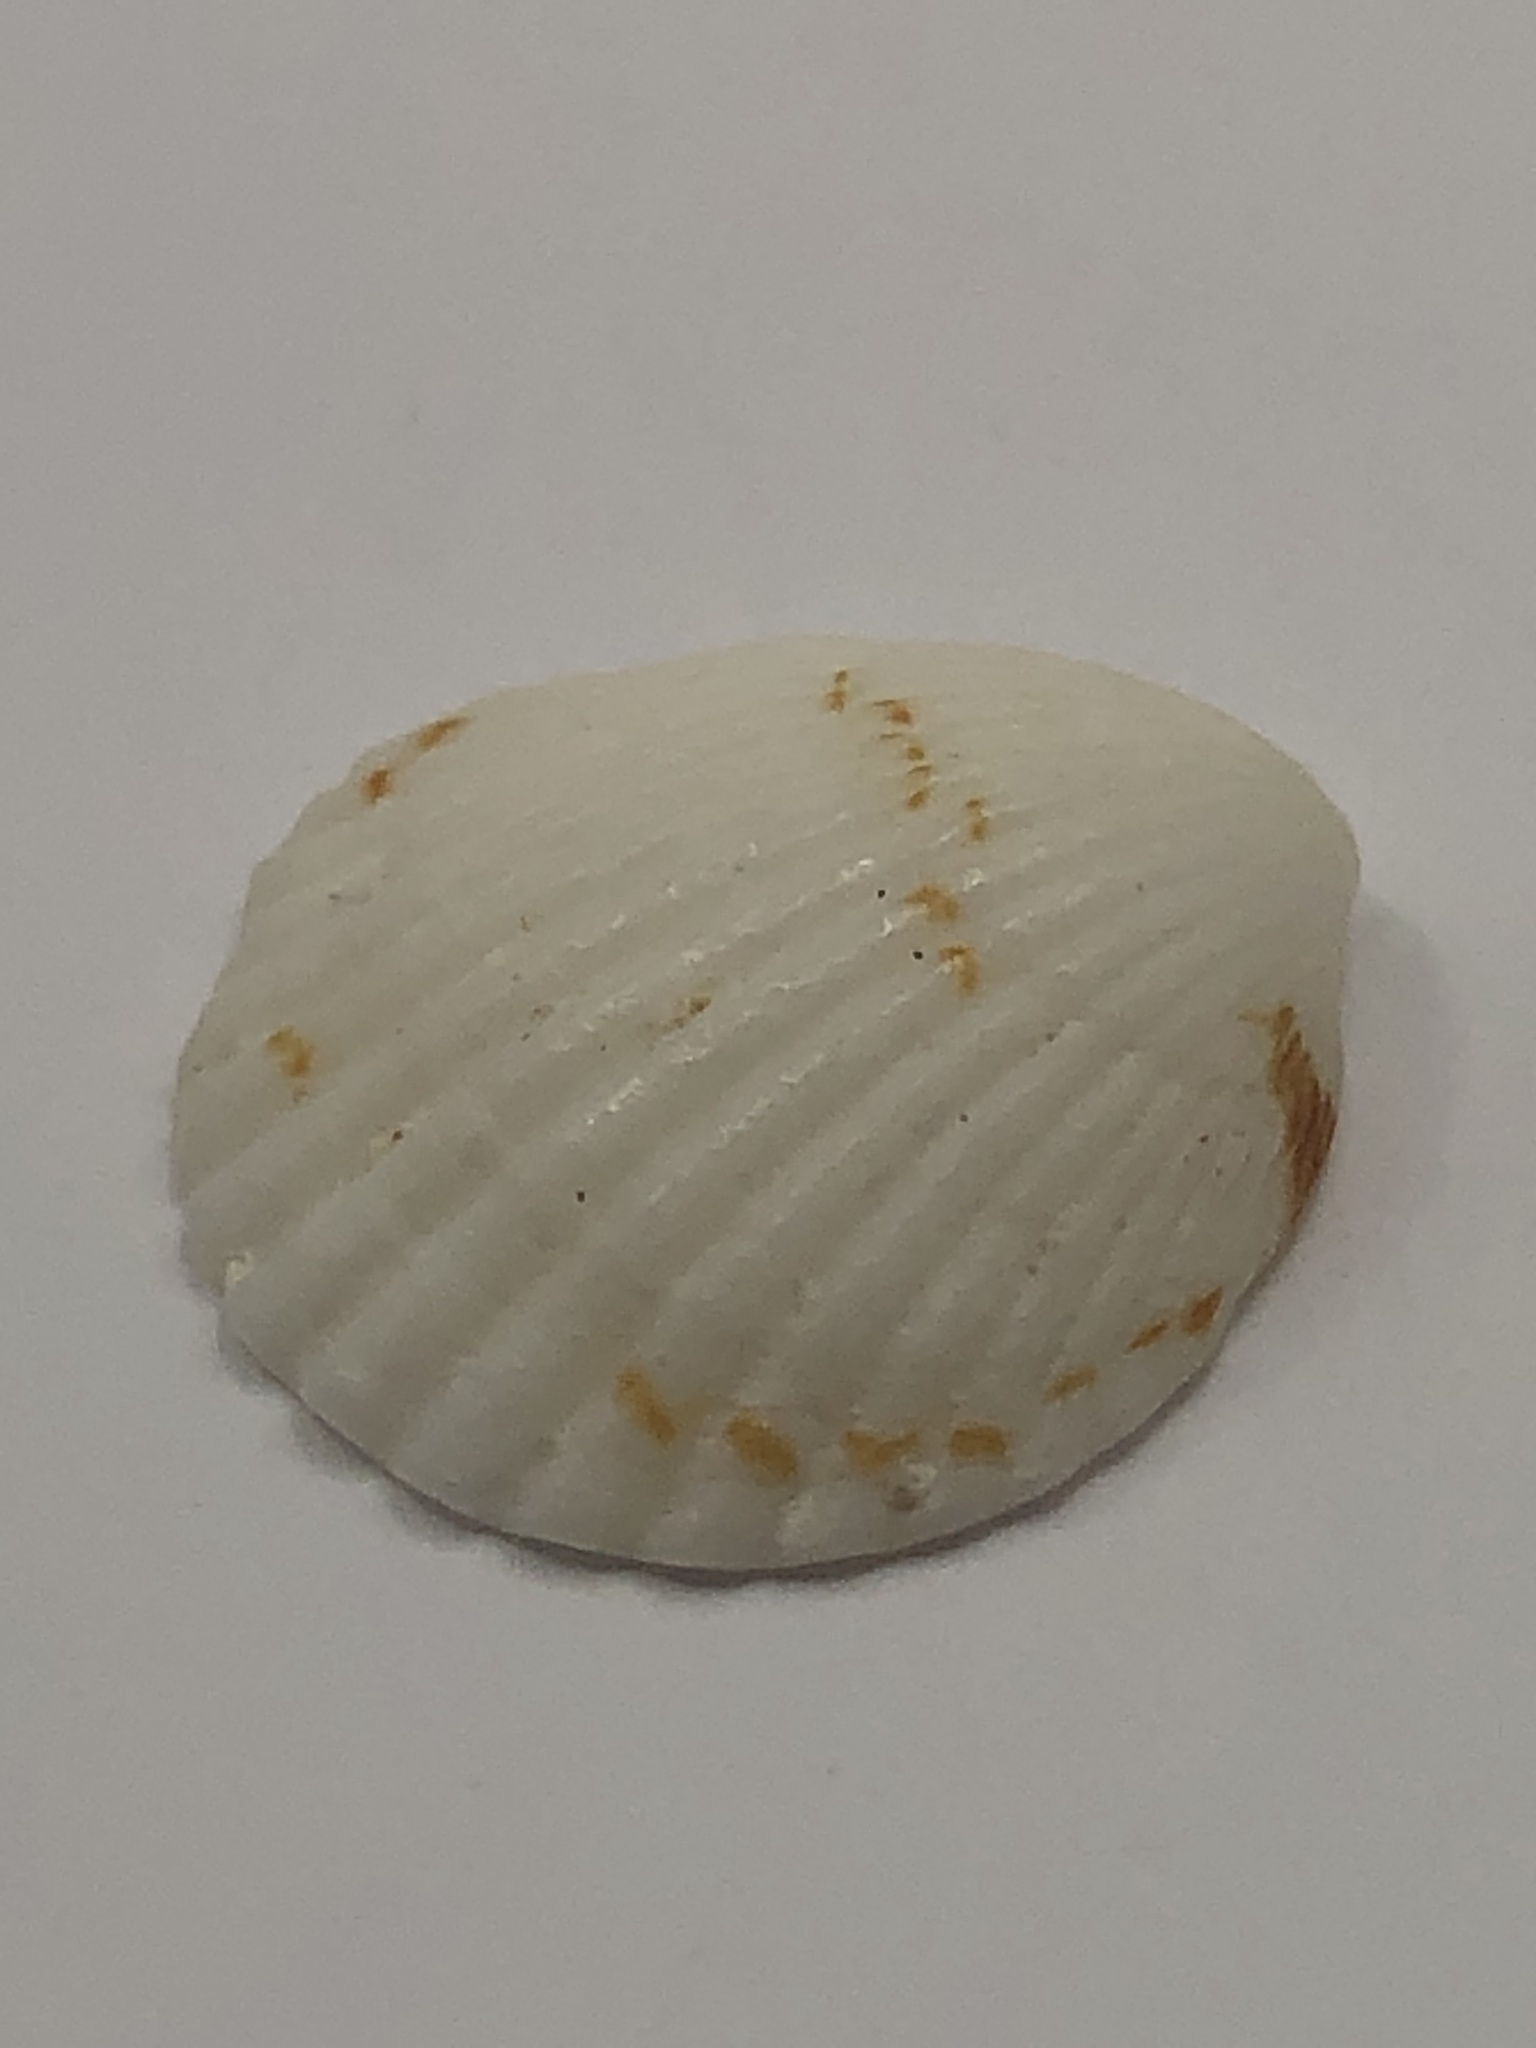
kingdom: Animalia
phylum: Mollusca
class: Bivalvia
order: Arcida
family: Glycymerididae
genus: Tucetona
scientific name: Tucetona pectinata
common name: Comb bittersweet
